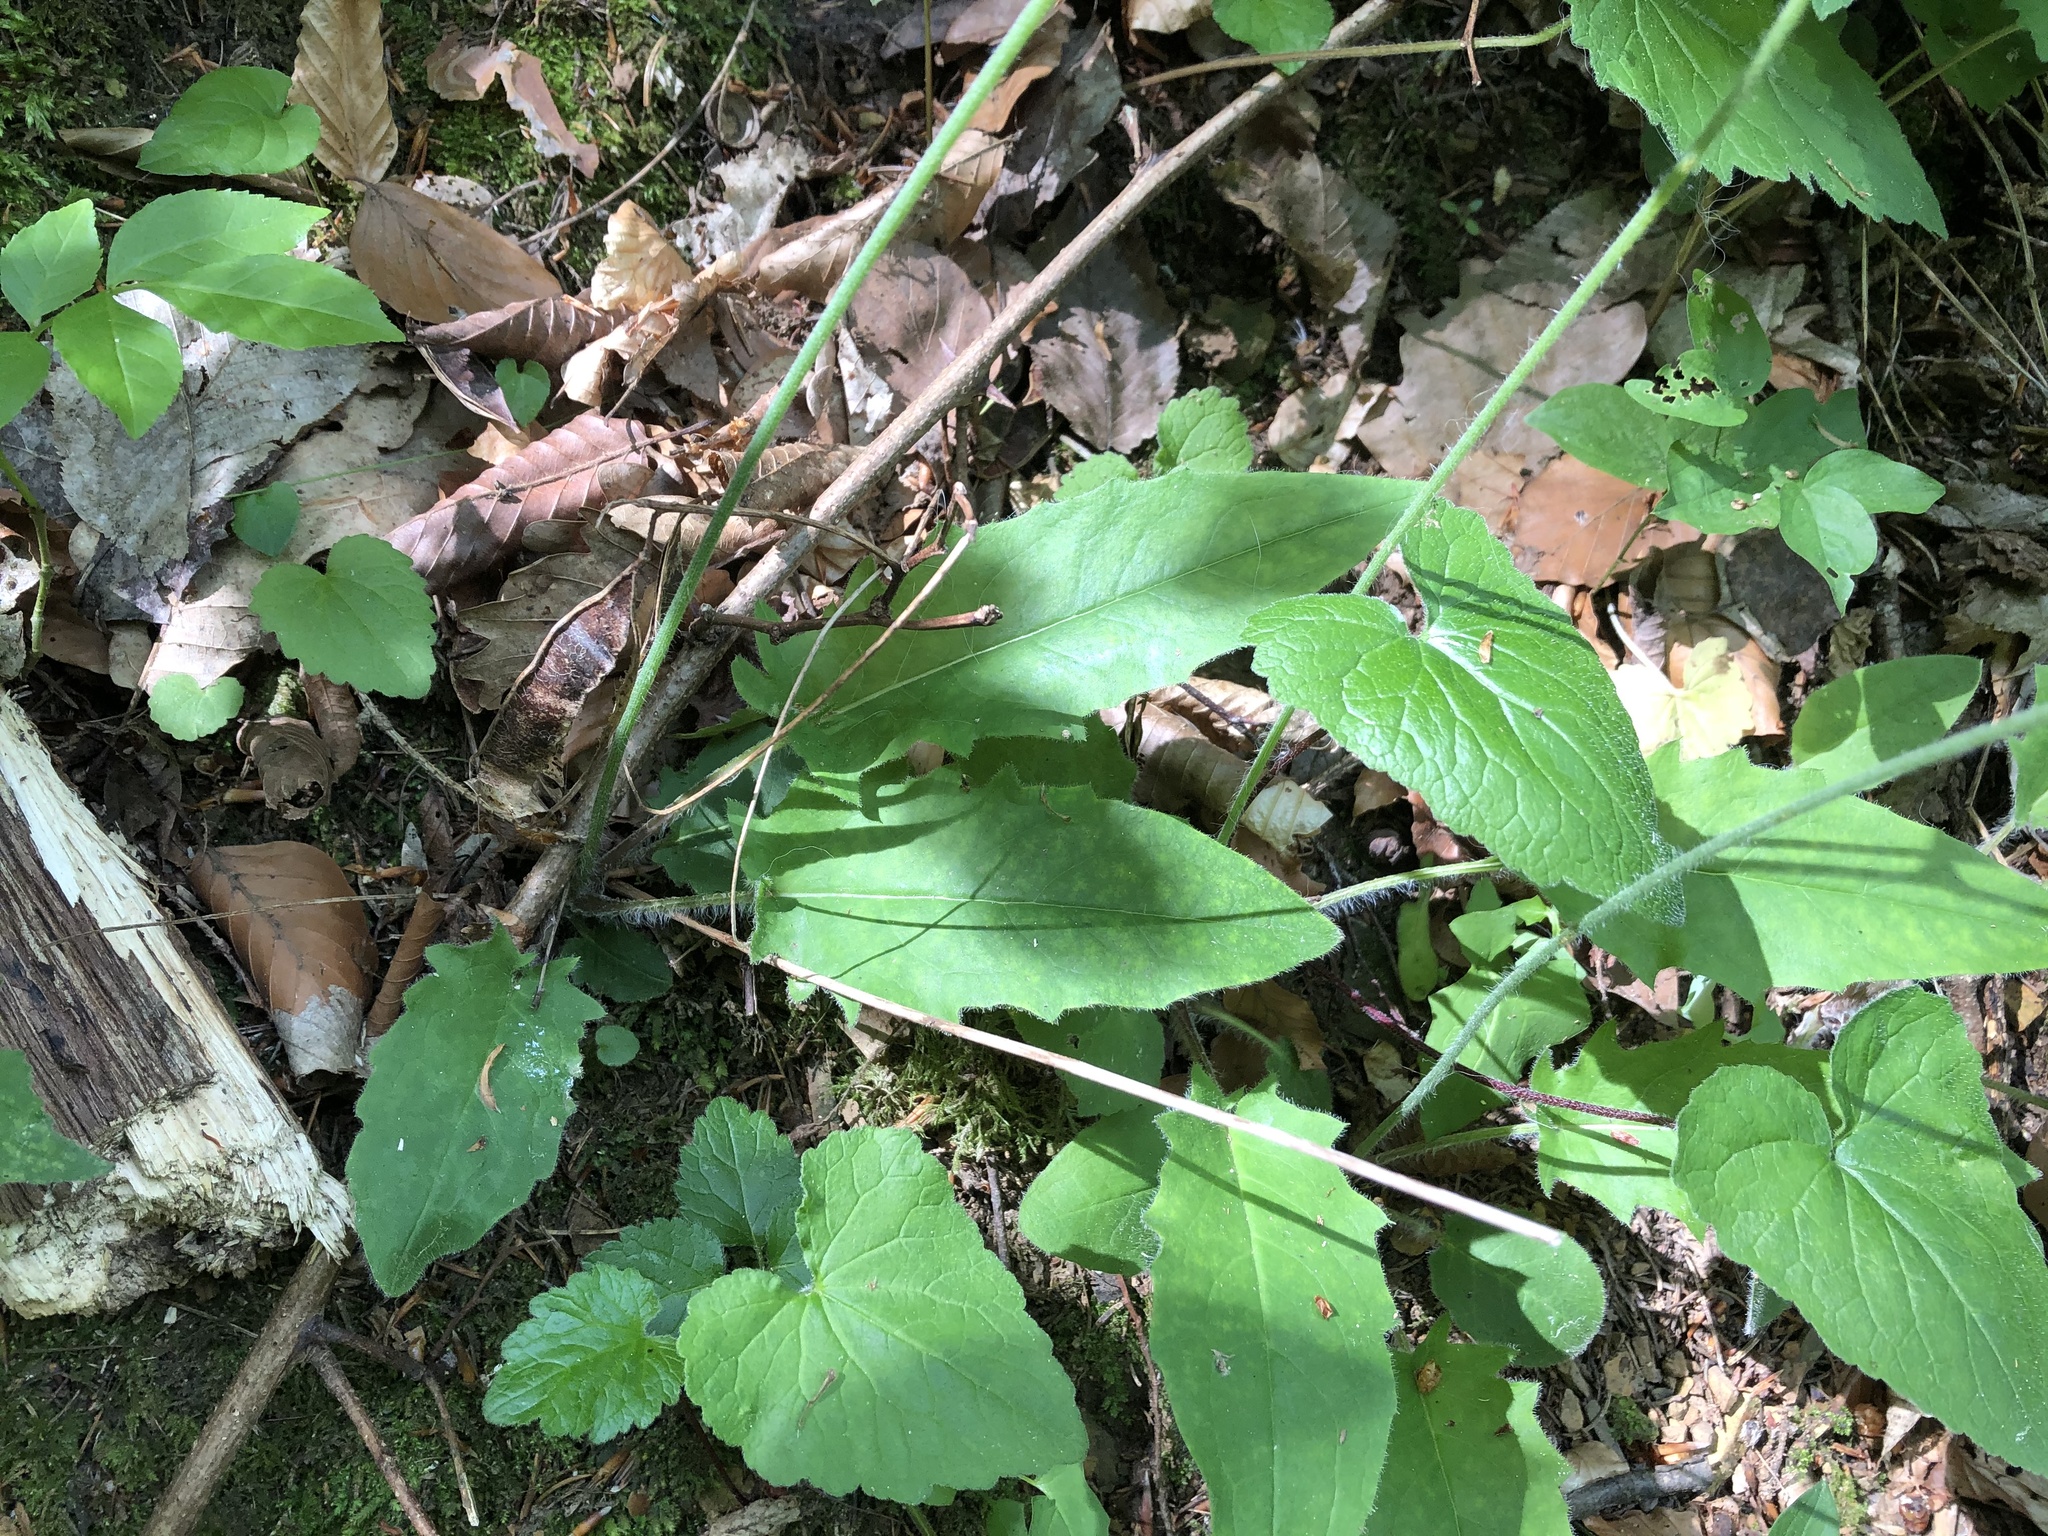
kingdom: Plantae
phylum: Tracheophyta
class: Magnoliopsida
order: Asterales
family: Asteraceae
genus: Hieracium
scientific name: Hieracium murorum
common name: Wall hawkweed
